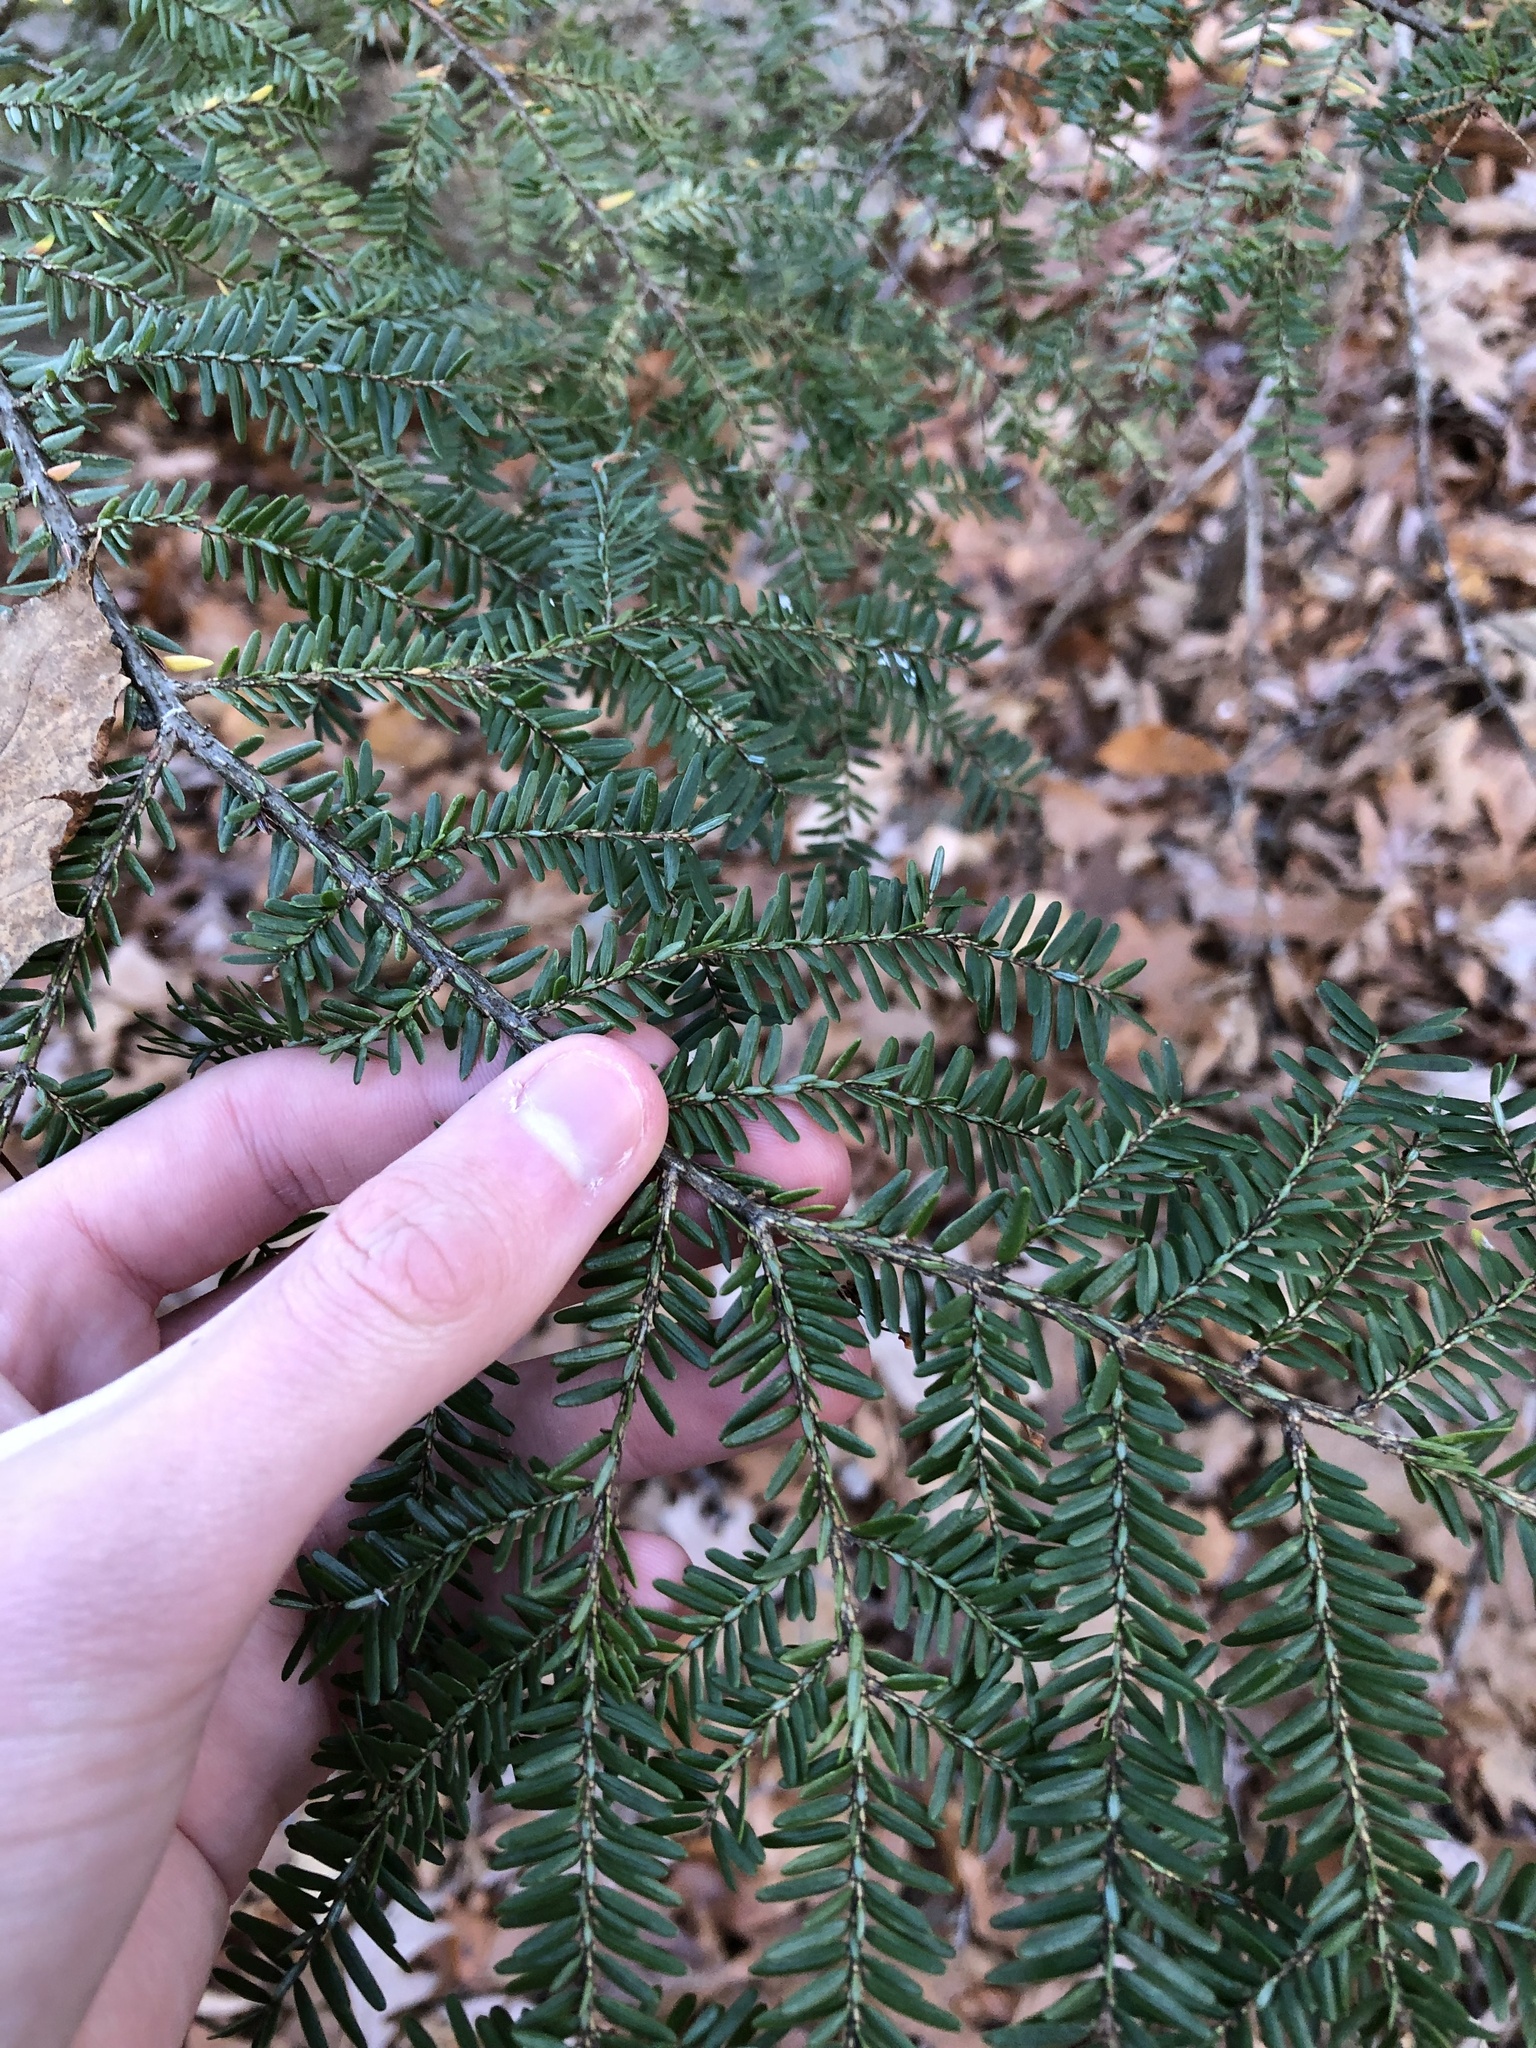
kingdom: Plantae
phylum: Tracheophyta
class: Pinopsida
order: Pinales
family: Pinaceae
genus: Tsuga
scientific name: Tsuga canadensis
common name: Eastern hemlock
